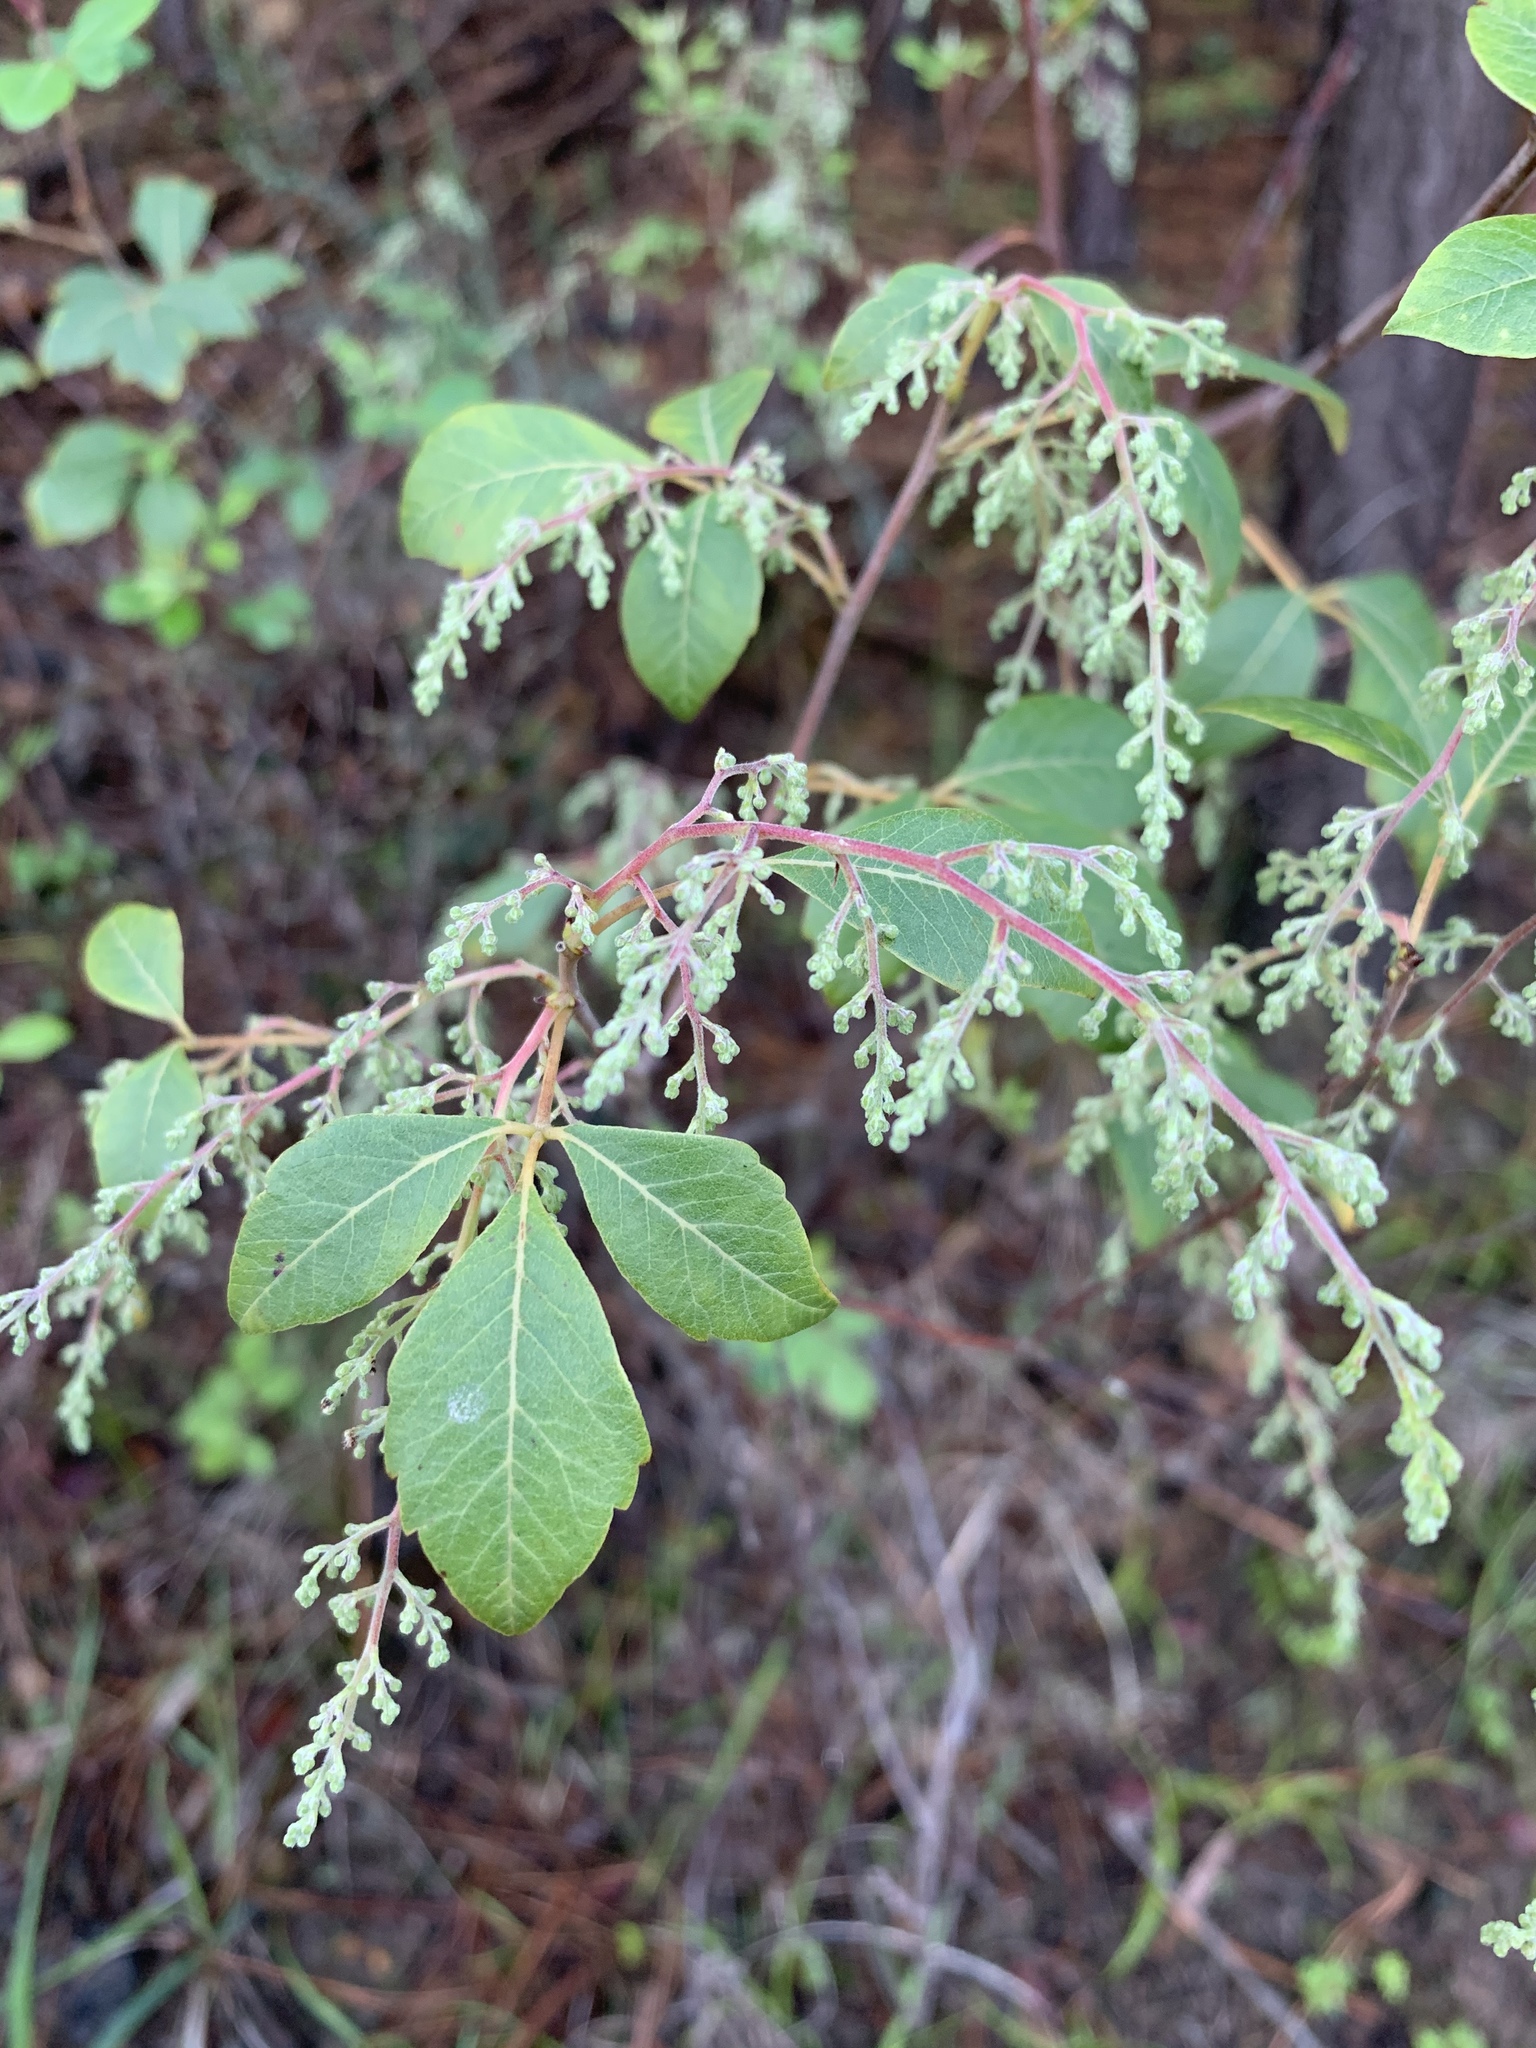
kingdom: Plantae
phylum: Tracheophyta
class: Magnoliopsida
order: Sapindales
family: Anacardiaceae
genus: Searsia
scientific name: Searsia tomentosa
